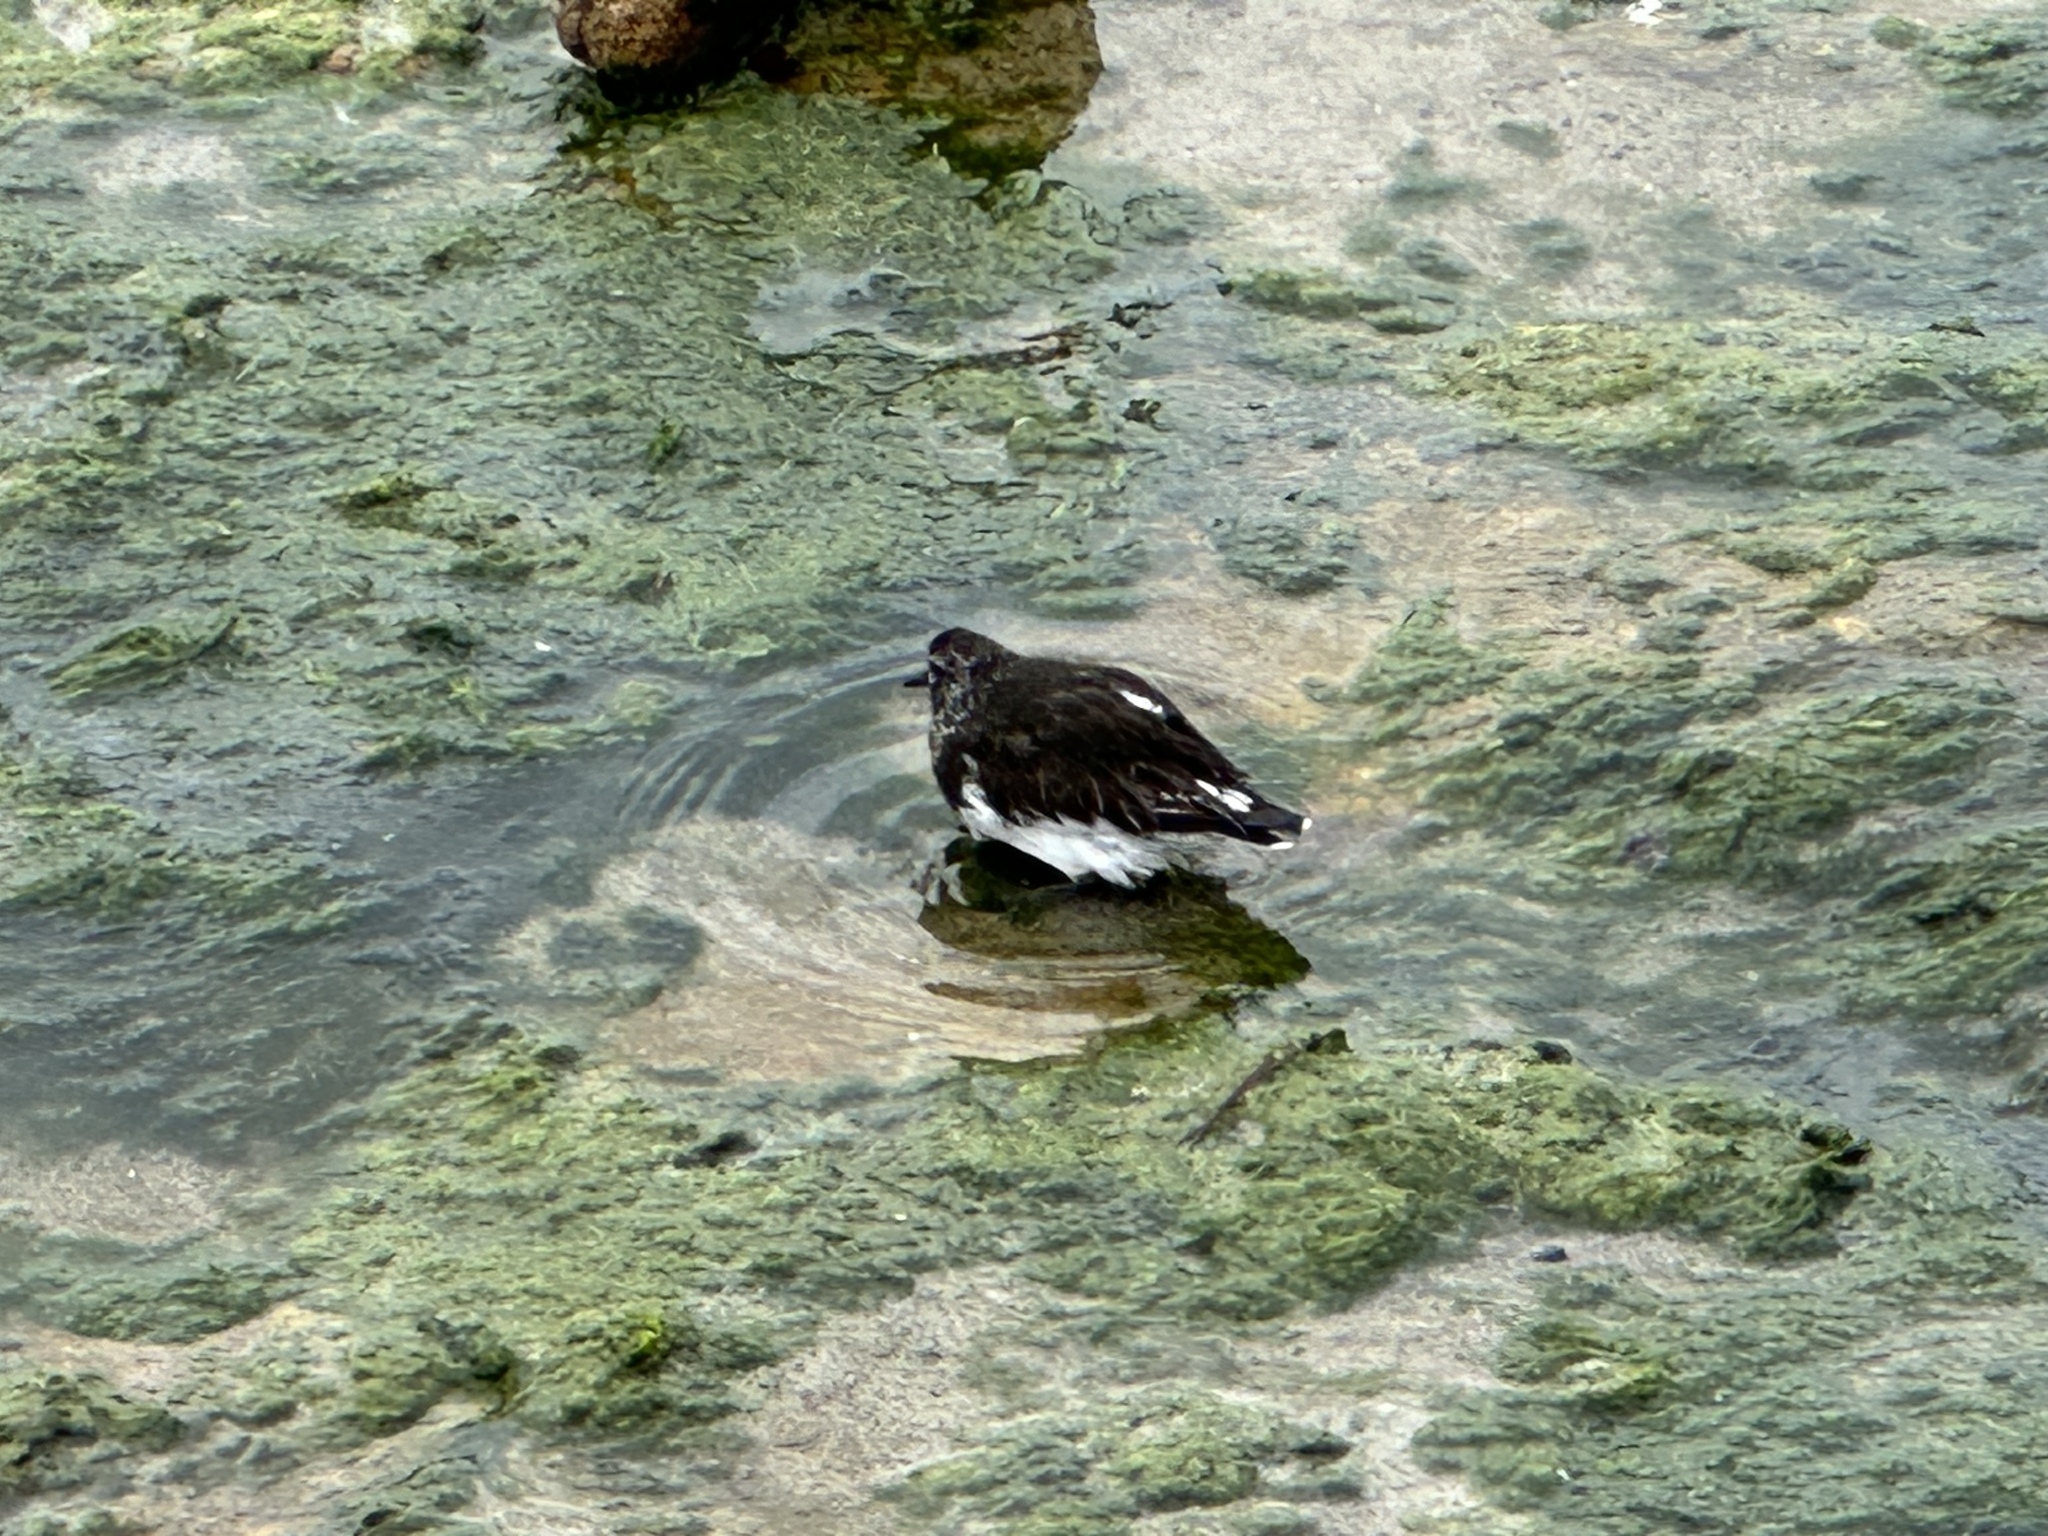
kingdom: Animalia
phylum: Chordata
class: Aves
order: Charadriiformes
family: Scolopacidae
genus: Arenaria
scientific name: Arenaria melanocephala
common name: Black turnstone
